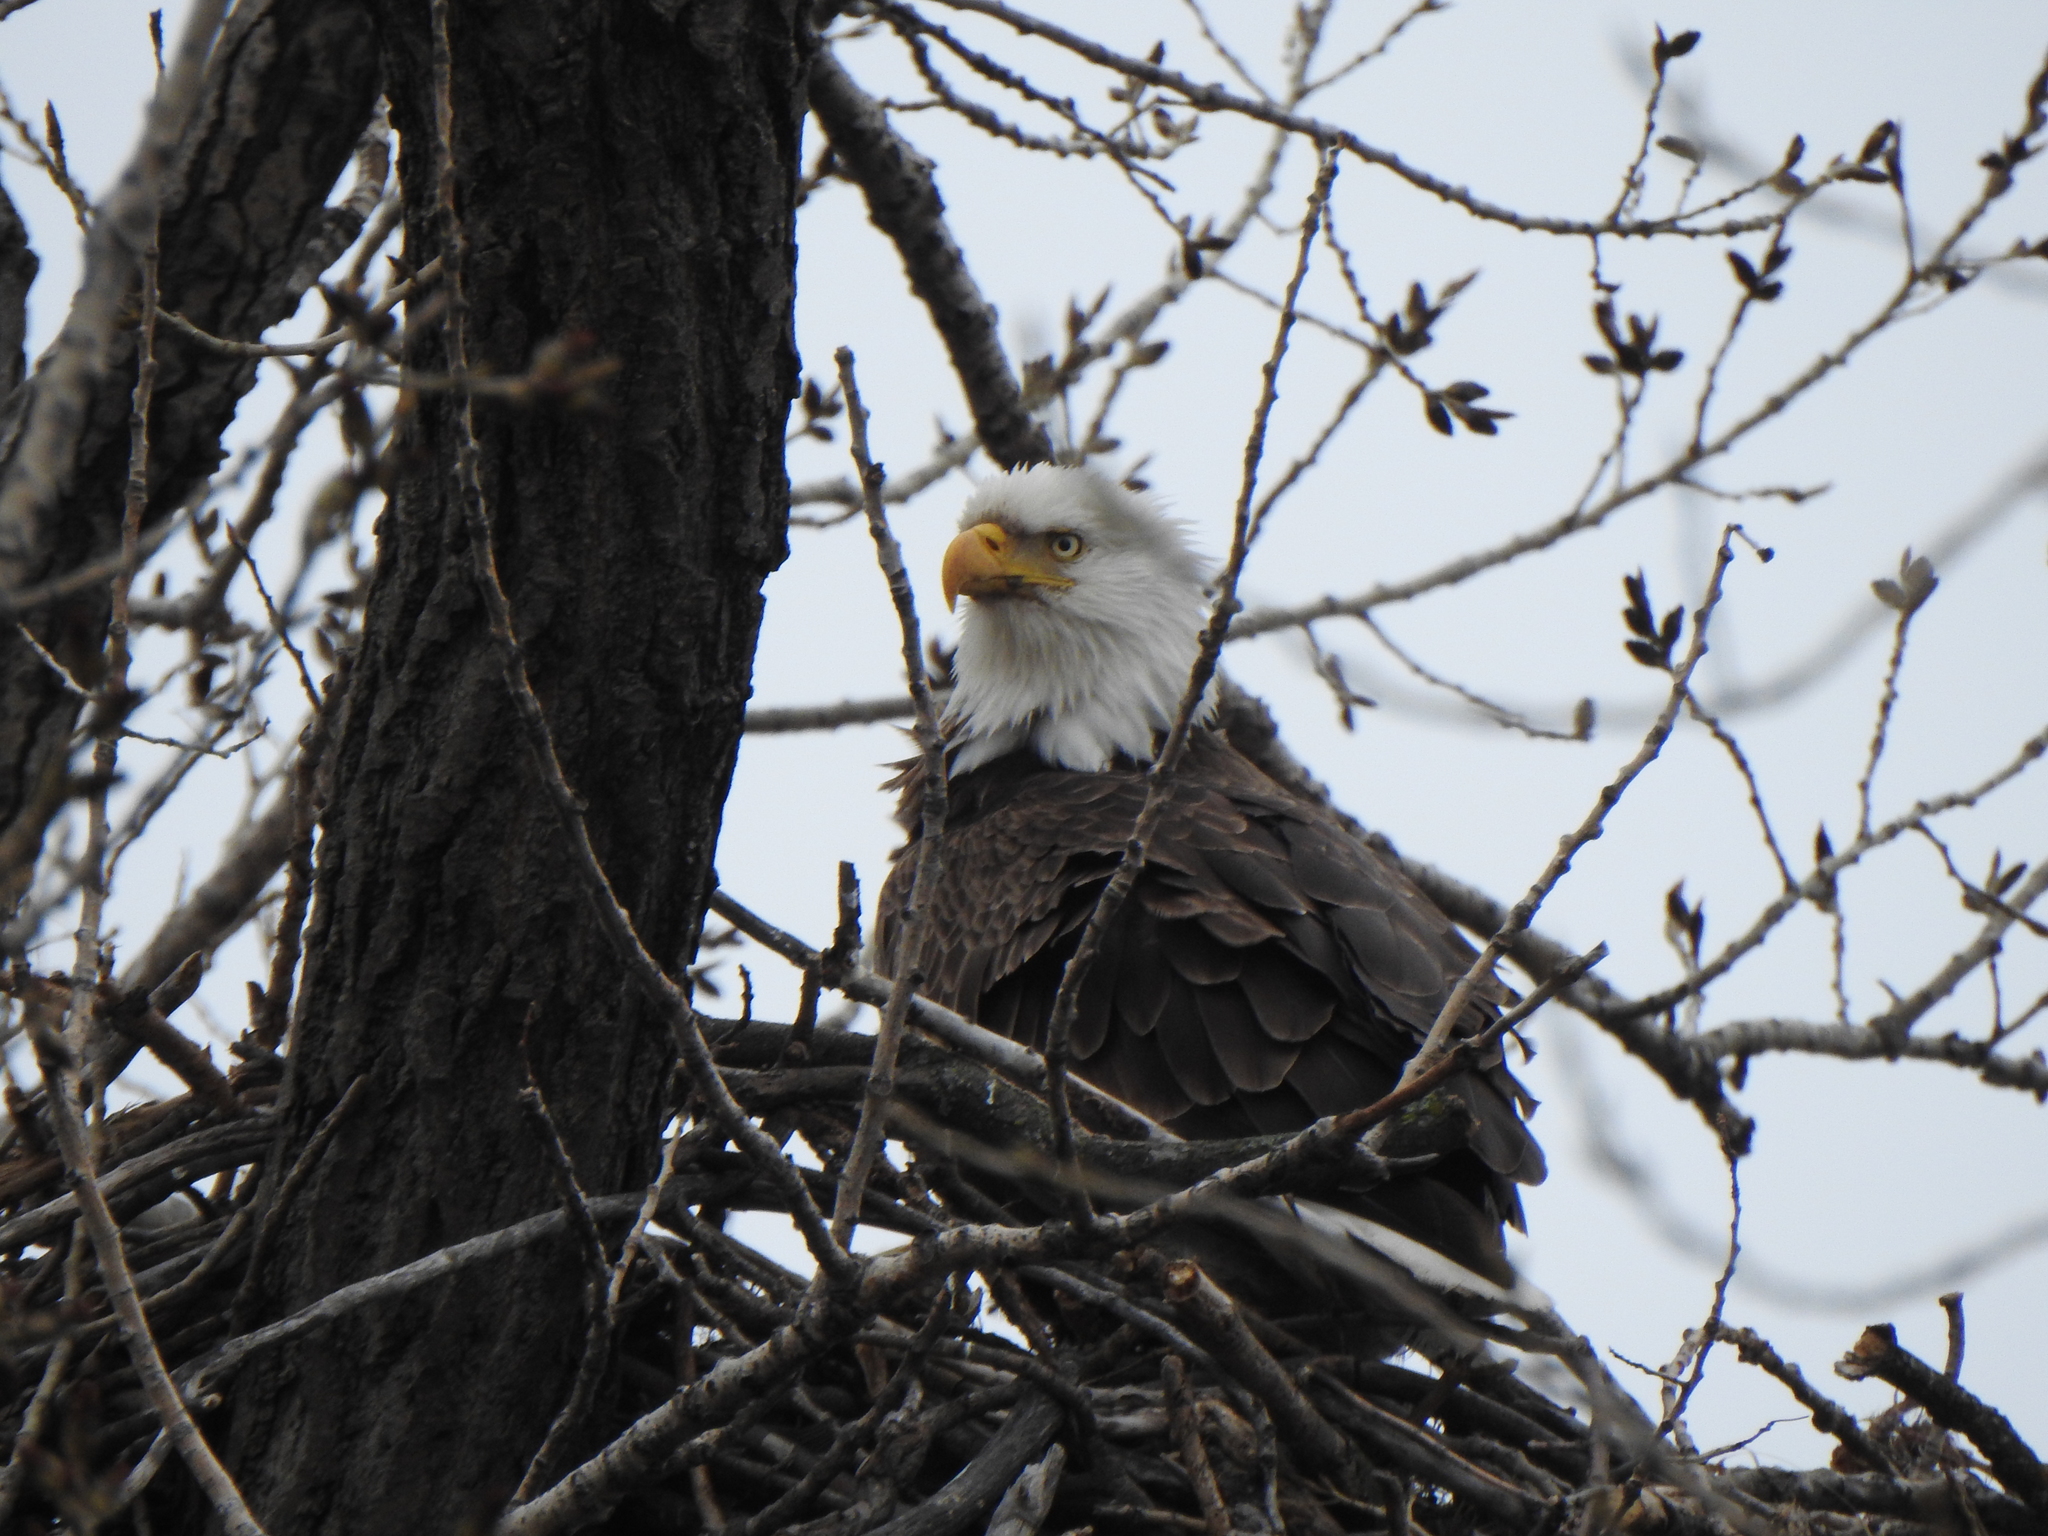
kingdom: Animalia
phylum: Chordata
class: Aves
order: Accipitriformes
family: Accipitridae
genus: Haliaeetus
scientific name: Haliaeetus leucocephalus
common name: Bald eagle
